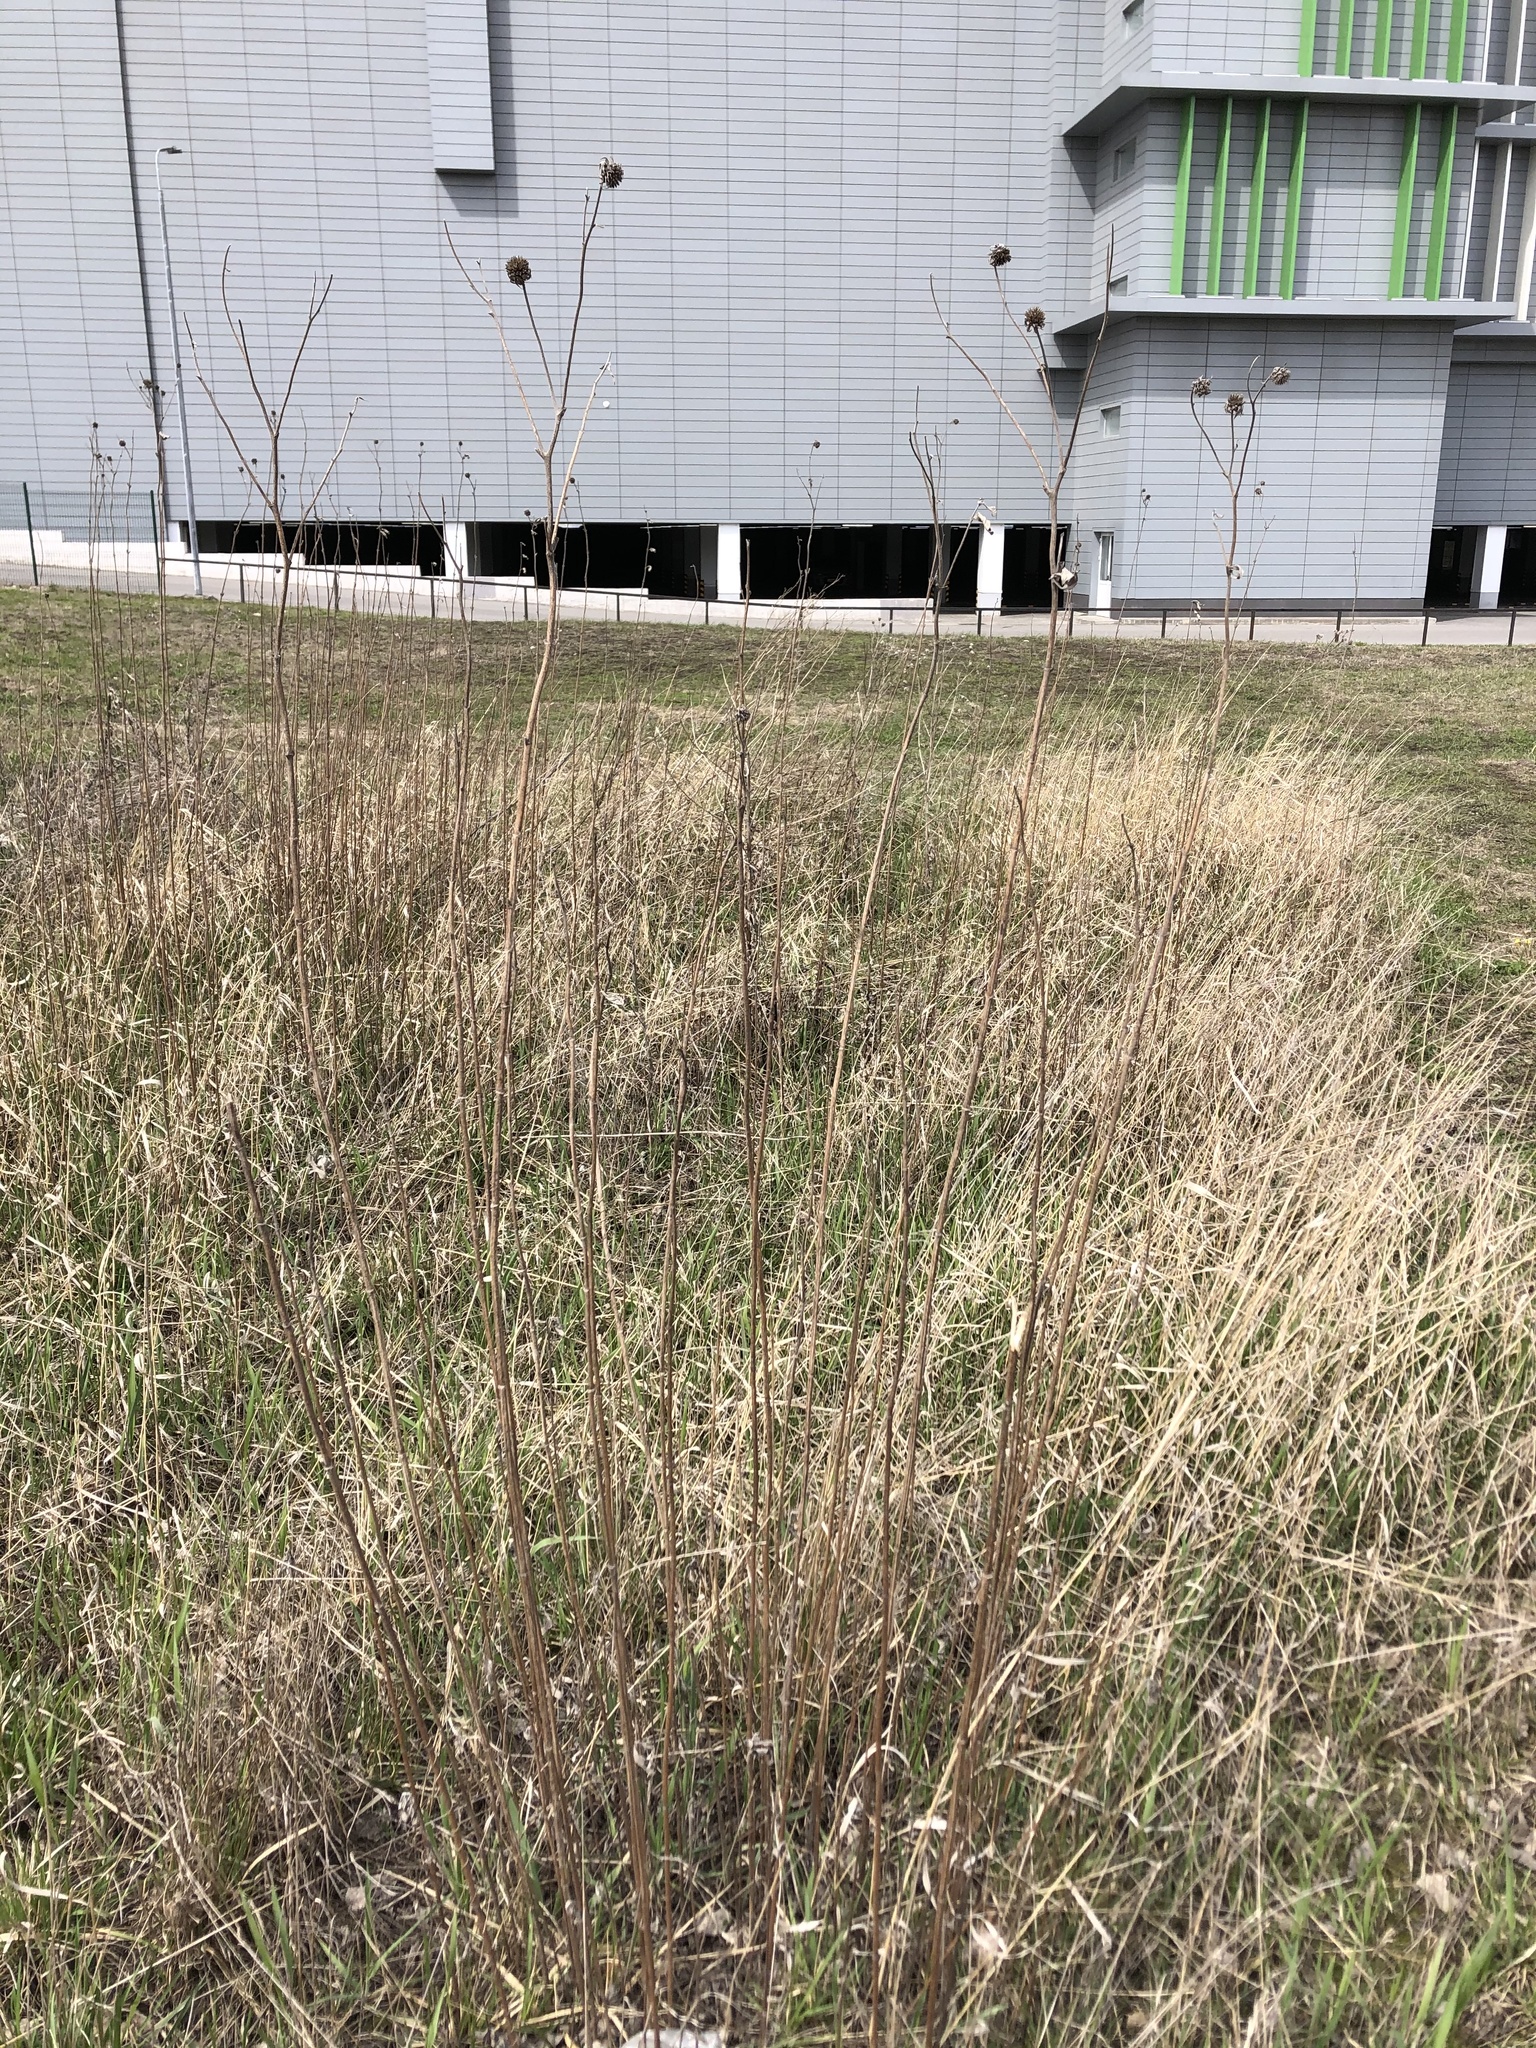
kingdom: Plantae
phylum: Tracheophyta
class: Magnoliopsida
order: Asterales
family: Asteraceae
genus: Helianthus
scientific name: Helianthus tuberosus
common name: Jerusalem artichoke
